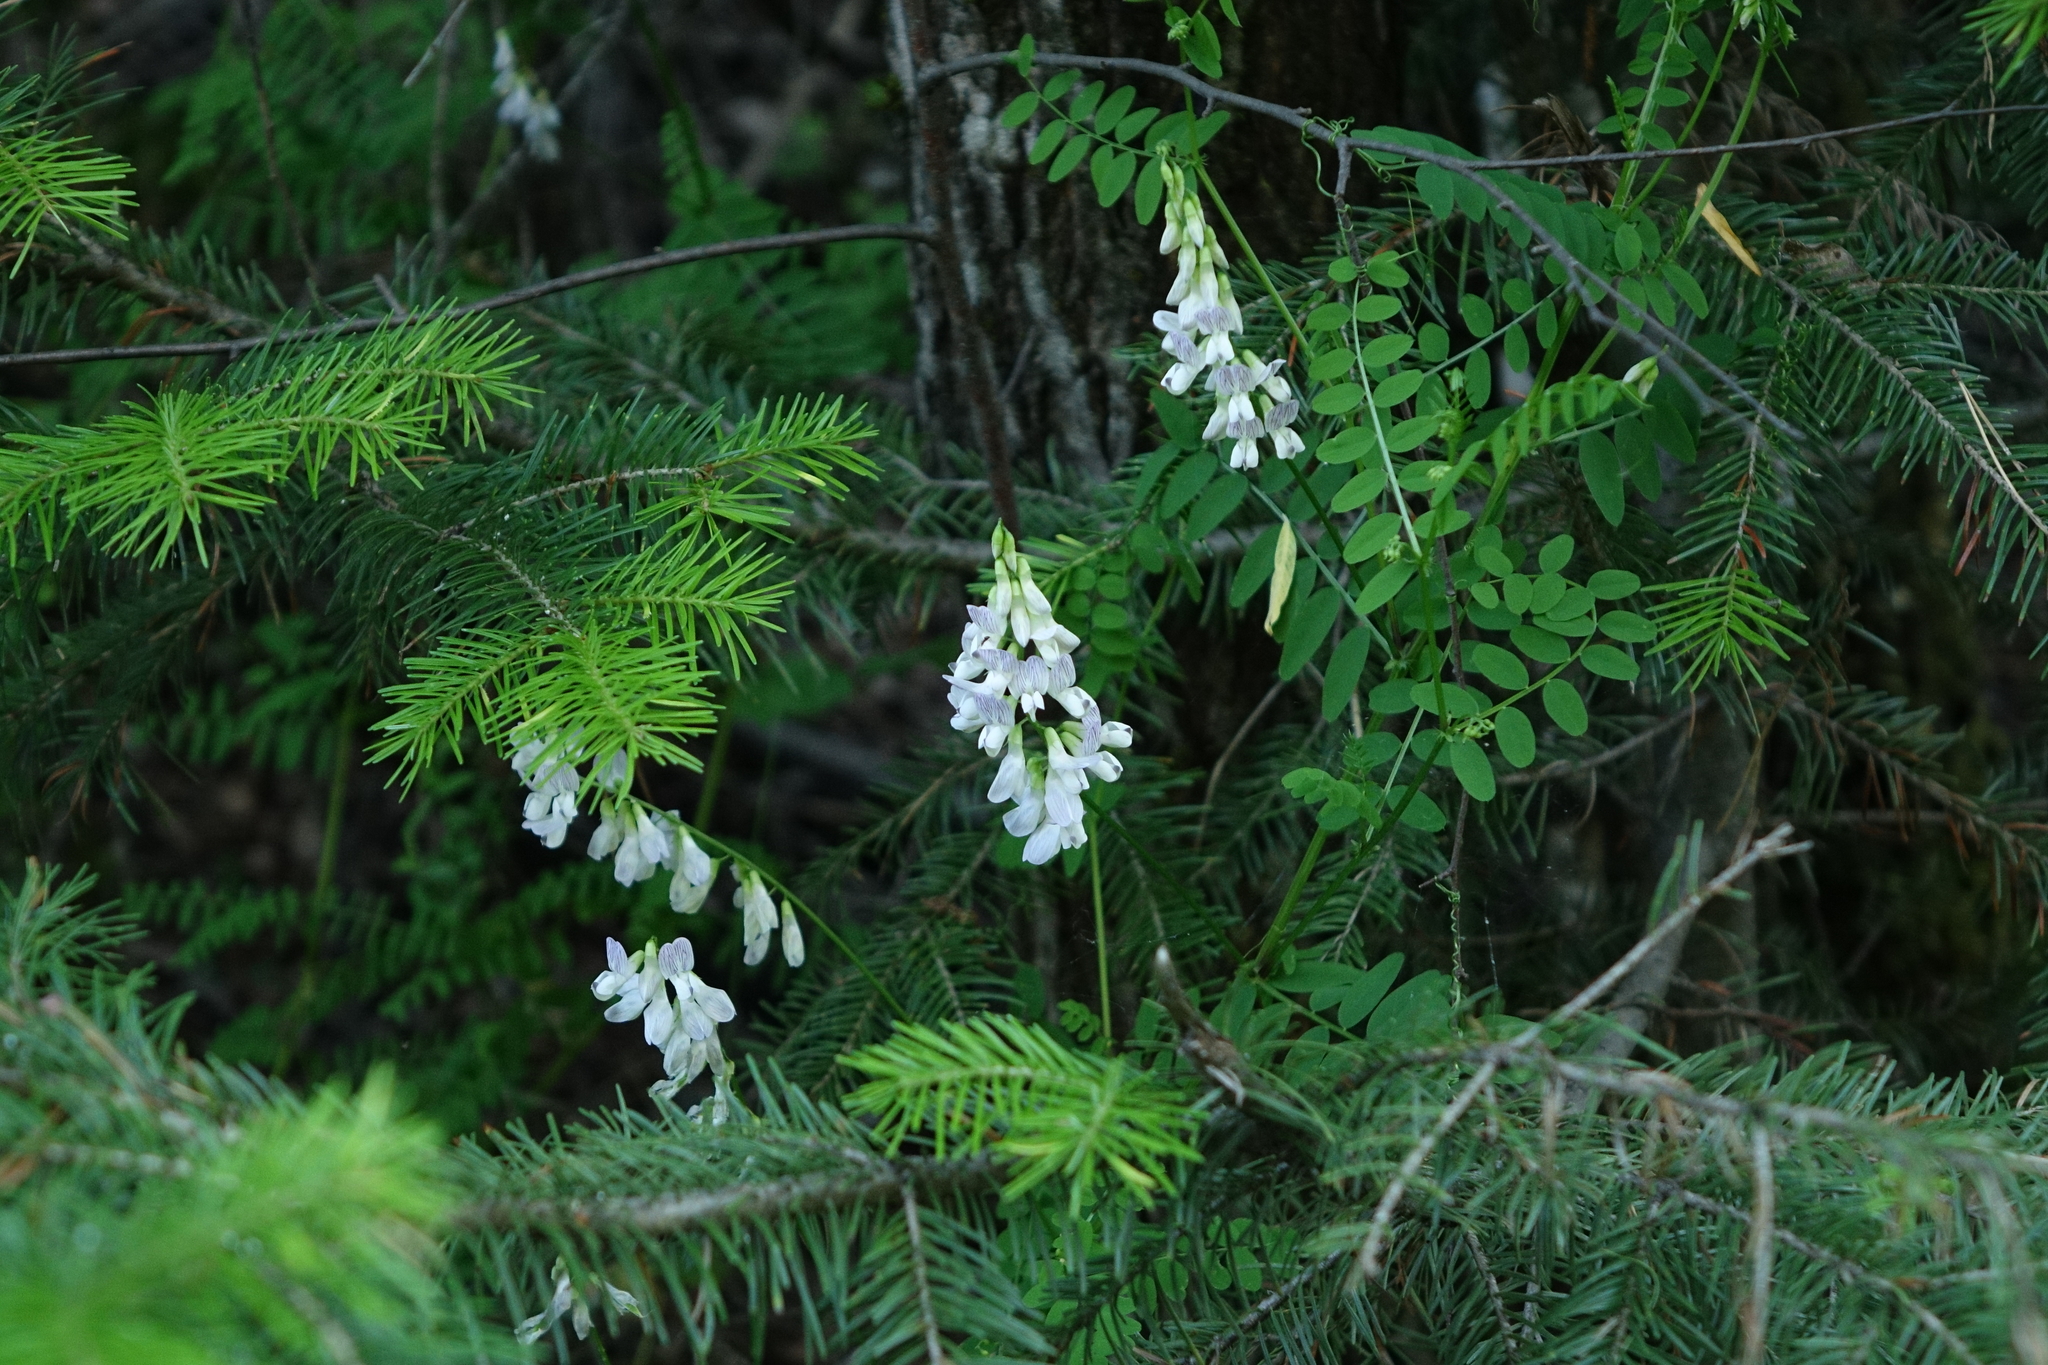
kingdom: Plantae
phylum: Tracheophyta
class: Magnoliopsida
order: Fabales
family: Fabaceae
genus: Vicia
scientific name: Vicia sylvatica
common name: Wood vetch
